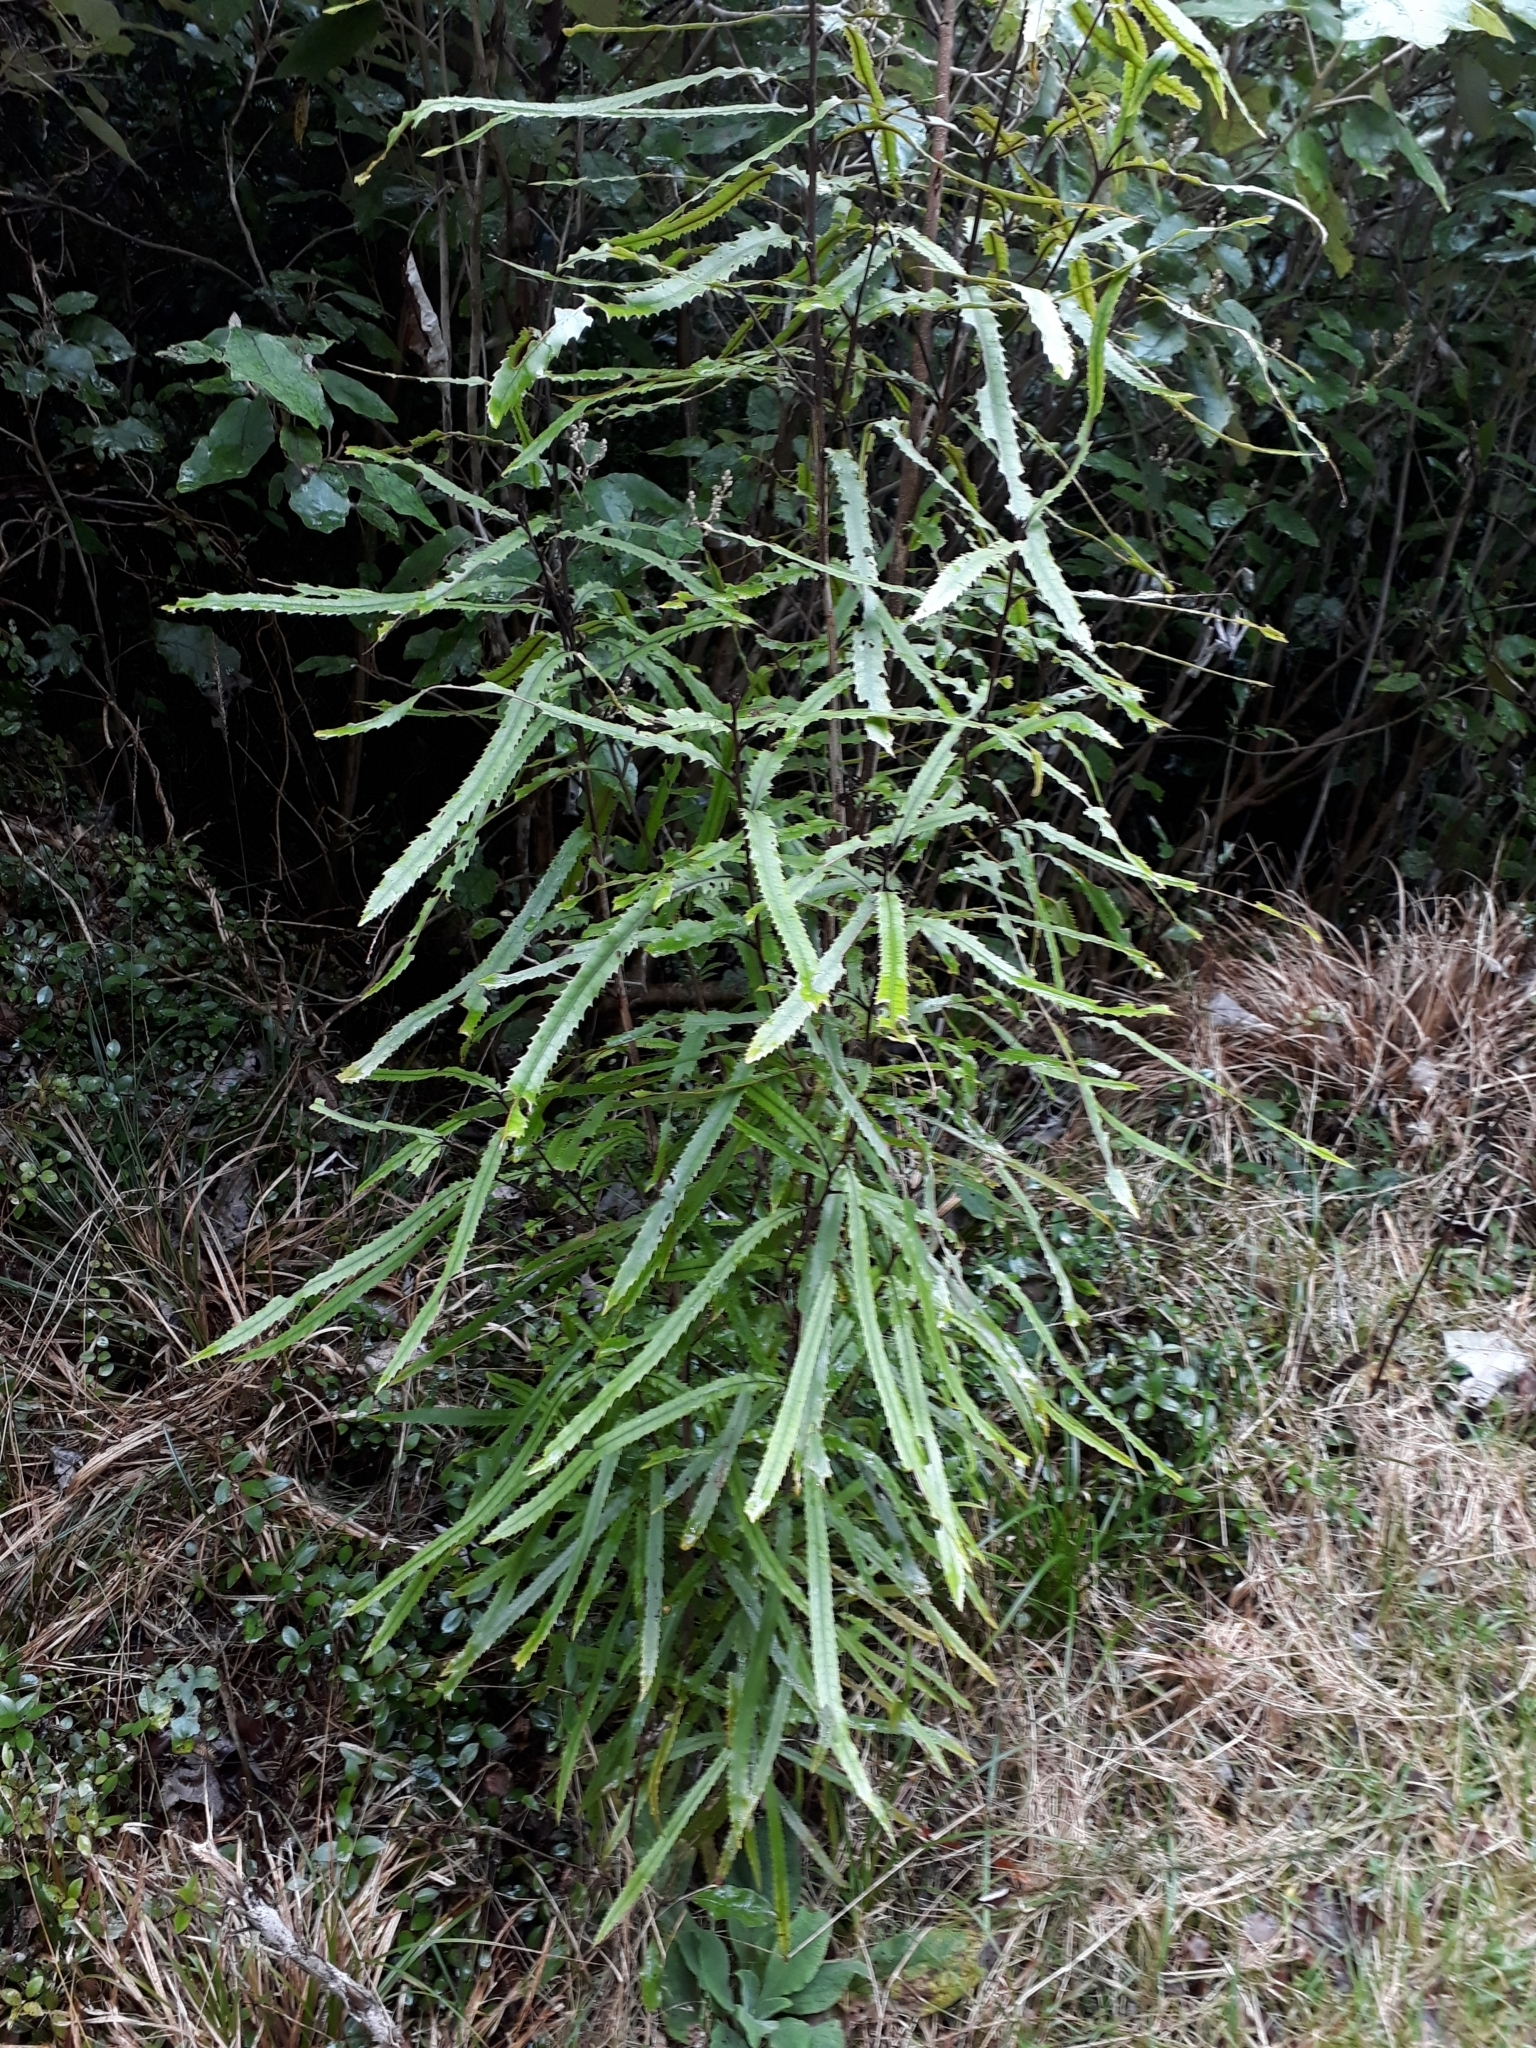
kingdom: Plantae
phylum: Tracheophyta
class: Magnoliopsida
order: Proteales
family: Proteaceae
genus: Knightia
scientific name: Knightia excelsa
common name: New zealand-honeysuckle
